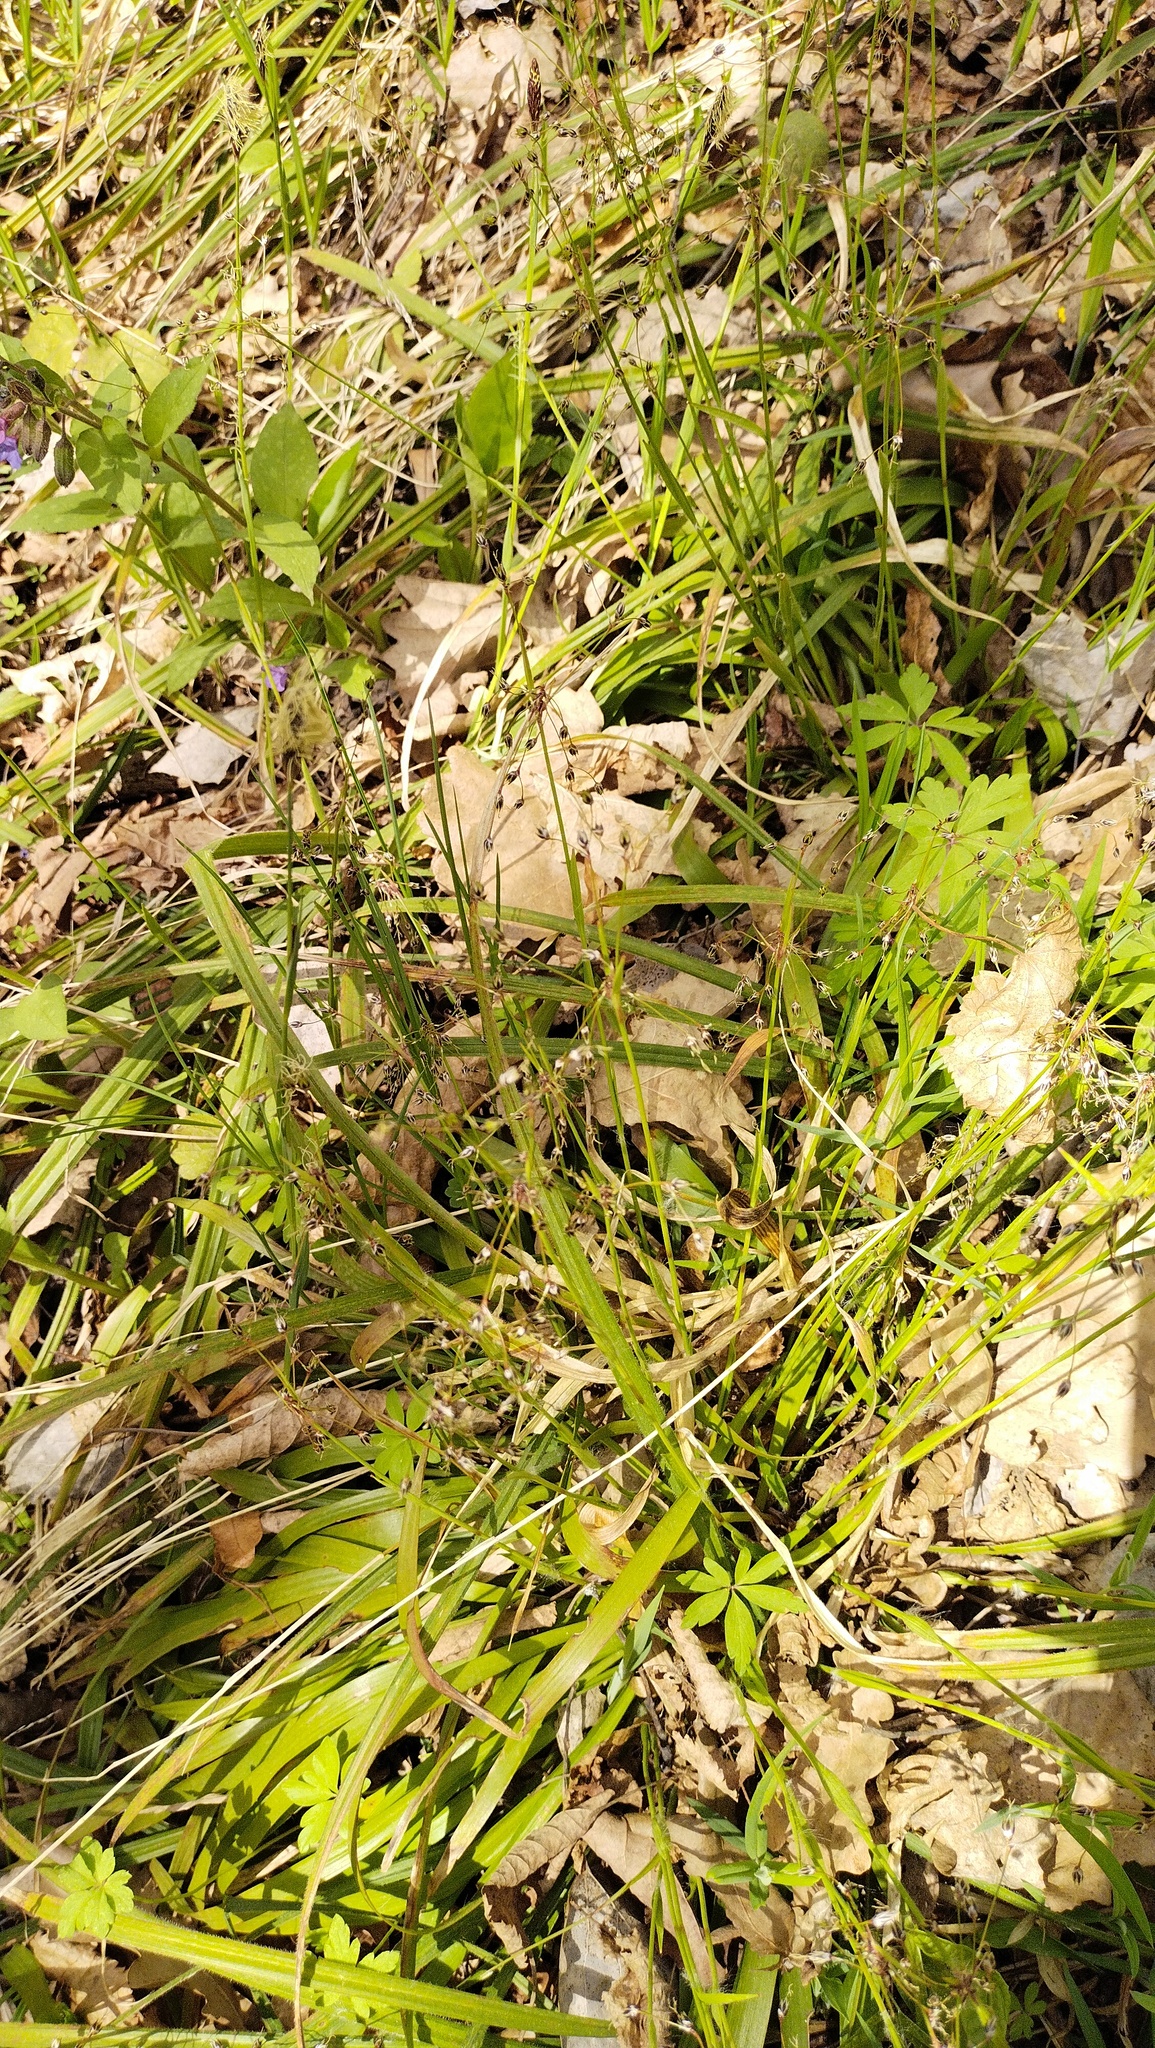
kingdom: Plantae
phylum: Tracheophyta
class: Liliopsida
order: Poales
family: Juncaceae
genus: Luzula
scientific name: Luzula pilosa
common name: Hairy wood-rush
